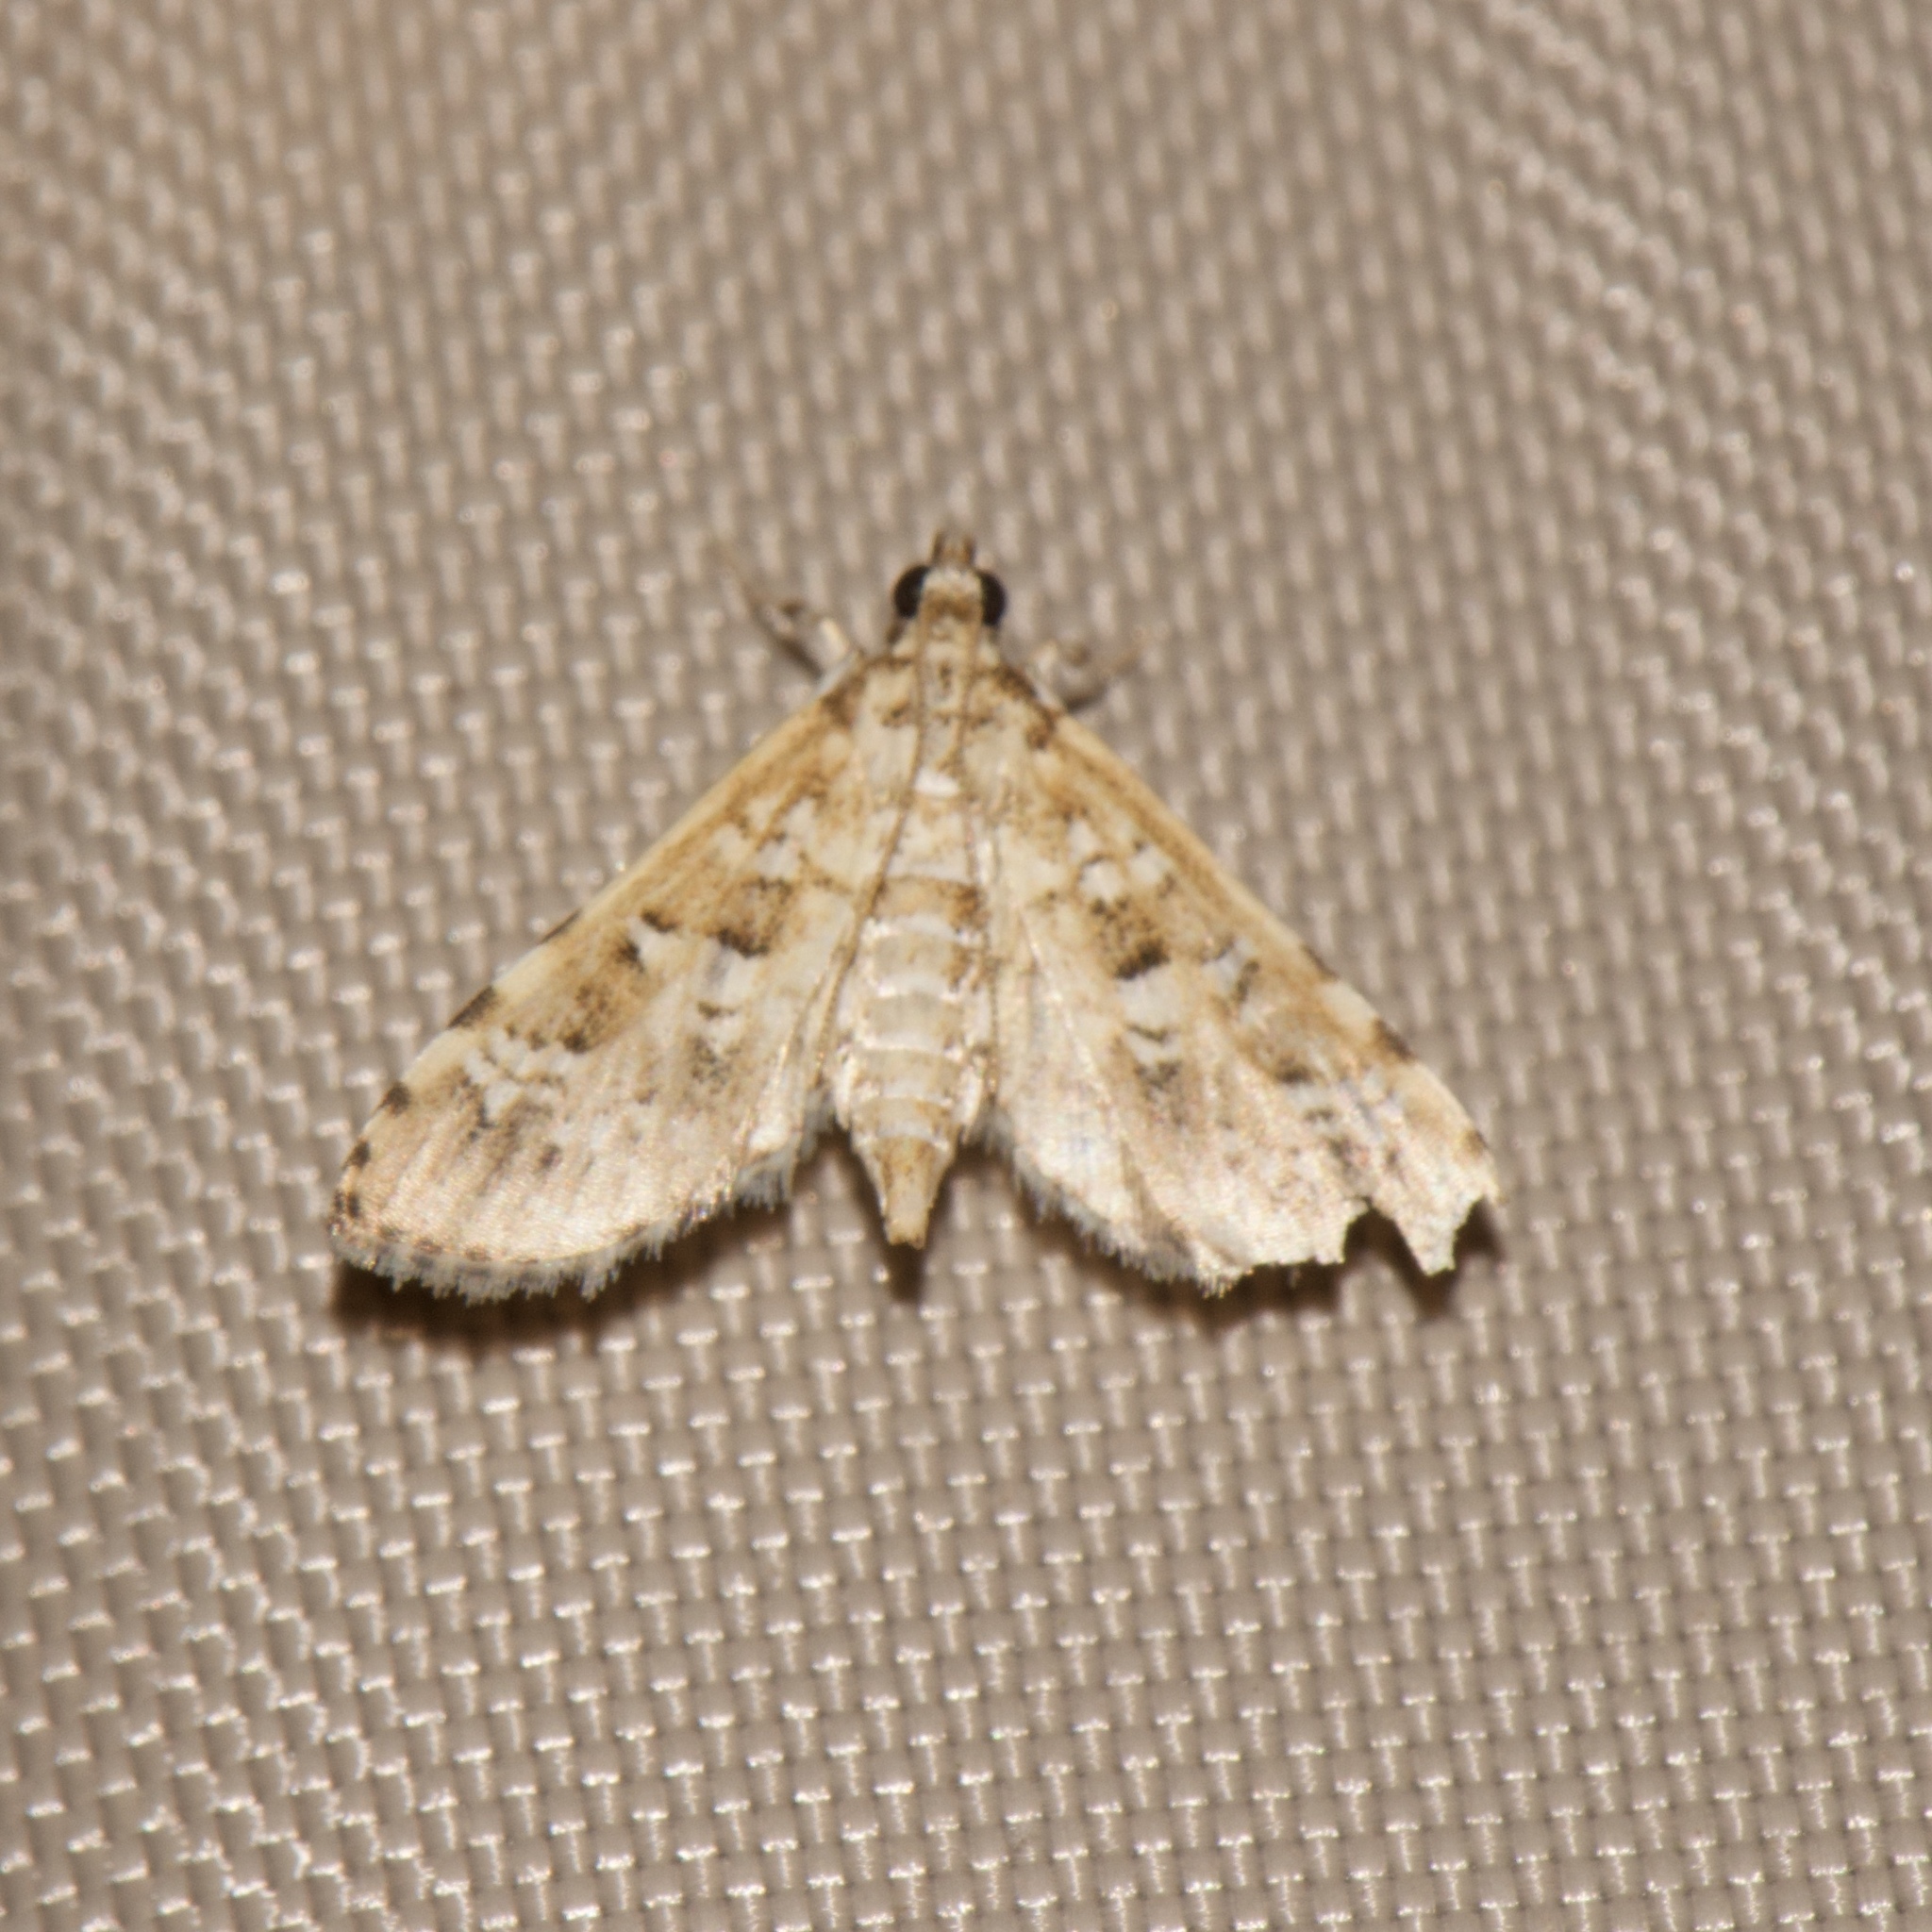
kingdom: Animalia
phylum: Arthropoda
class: Insecta
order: Lepidoptera
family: Crambidae
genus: Samea
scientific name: Samea multiplicalis
